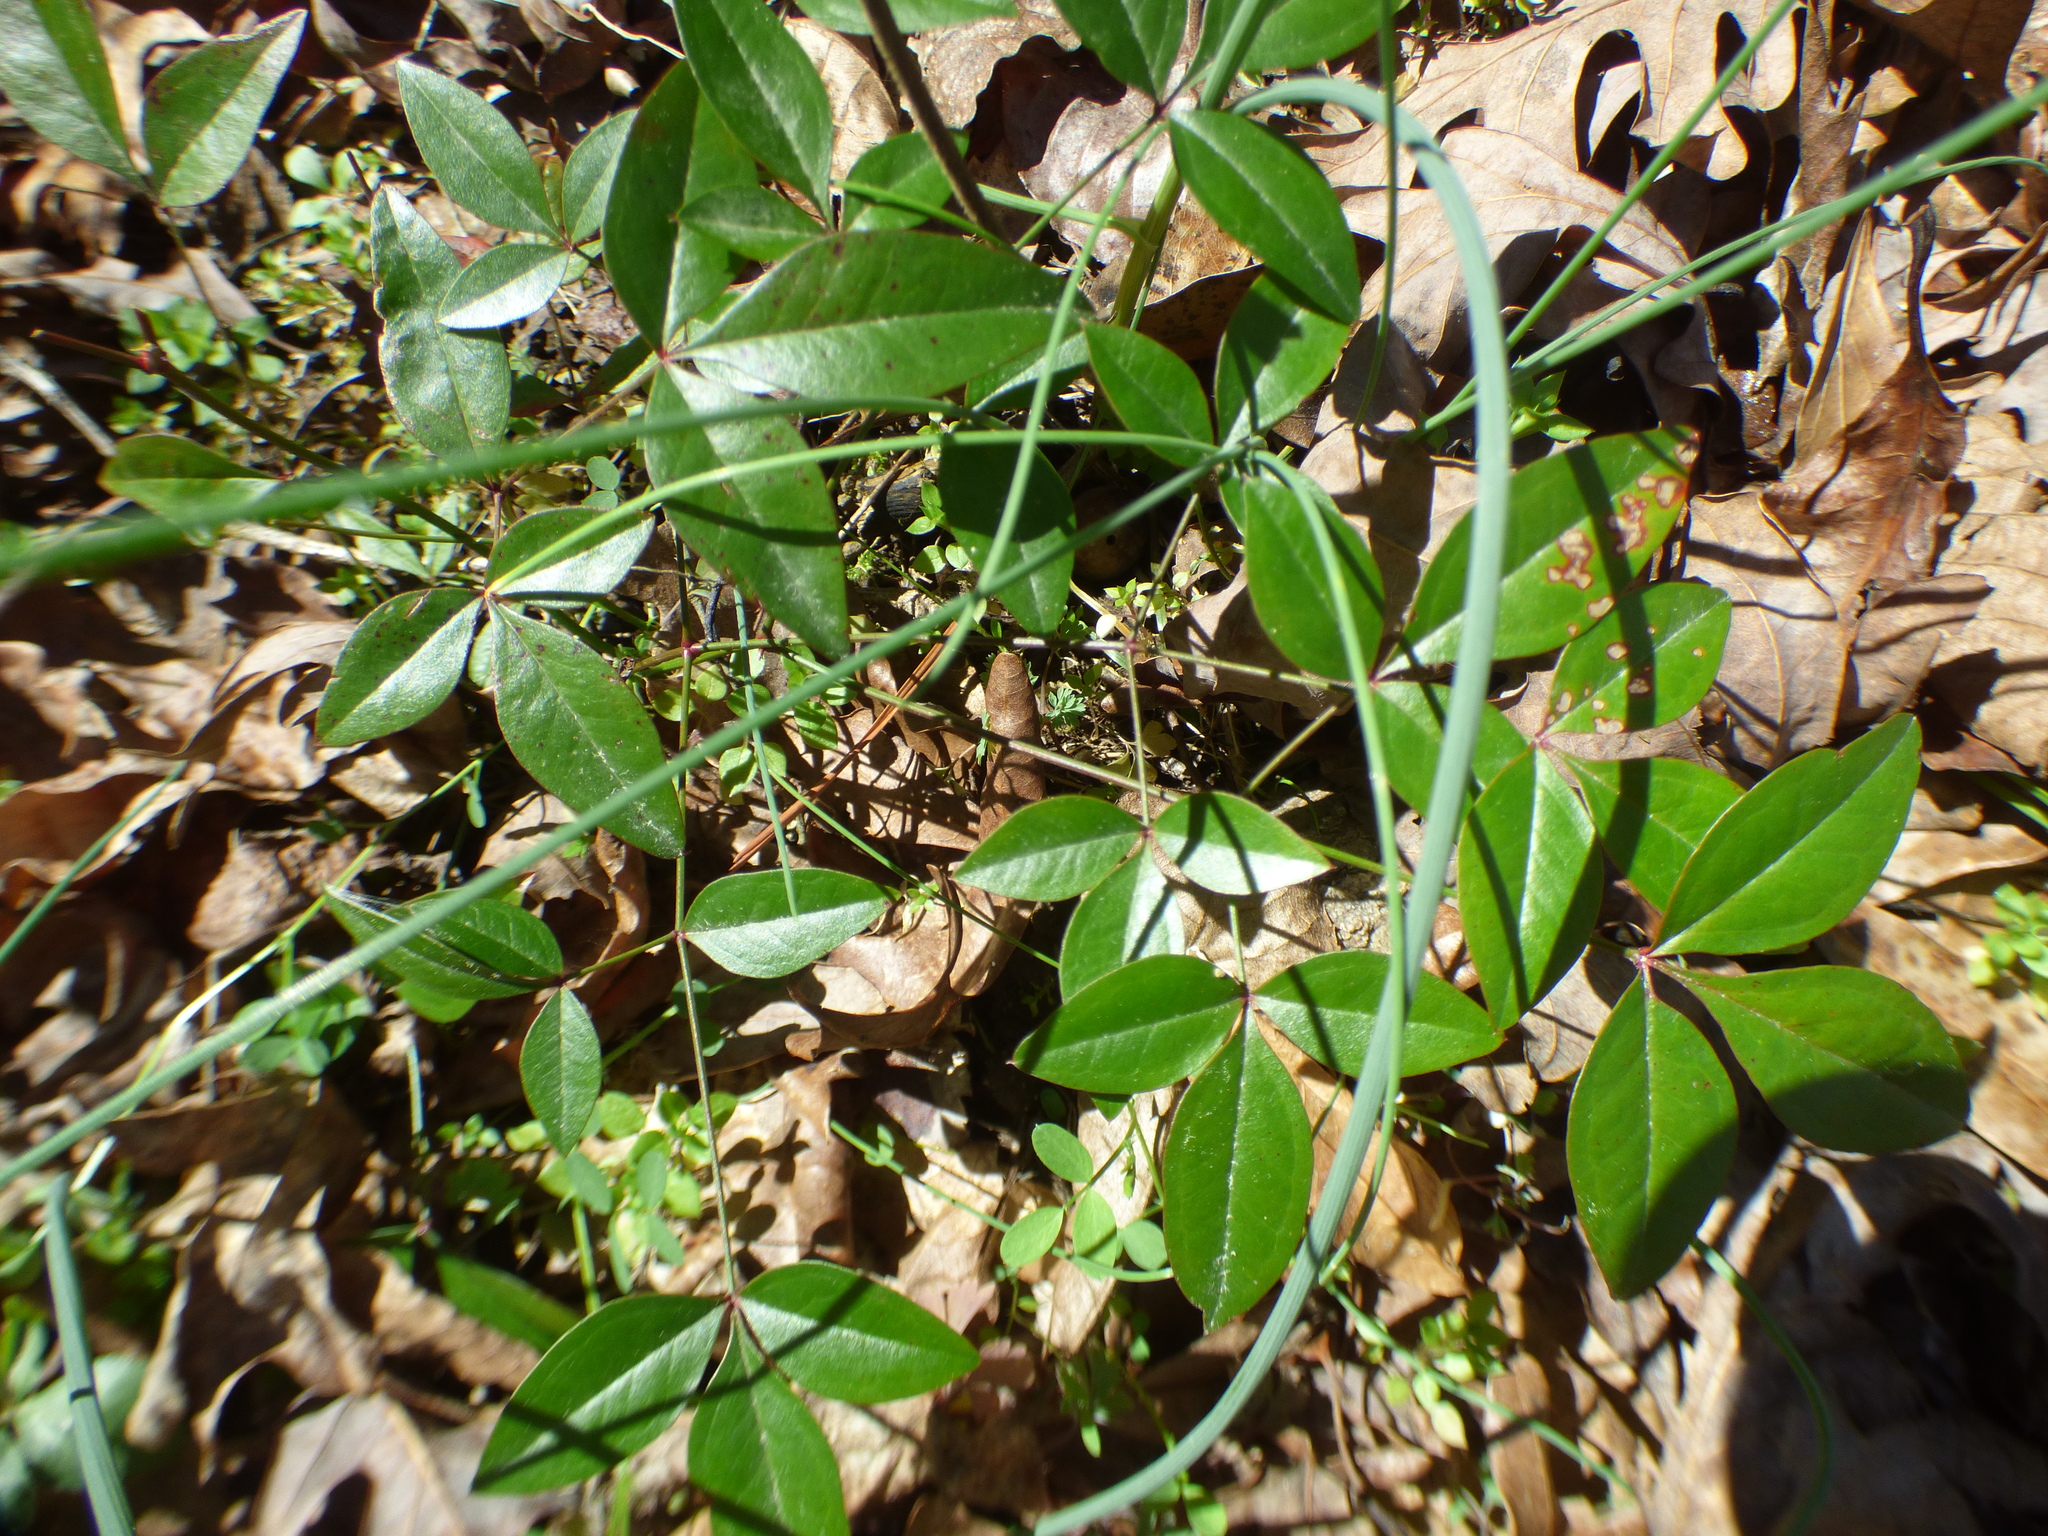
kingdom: Plantae
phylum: Tracheophyta
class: Magnoliopsida
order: Ranunculales
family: Berberidaceae
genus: Nandina
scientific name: Nandina domestica
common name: Sacred bamboo
